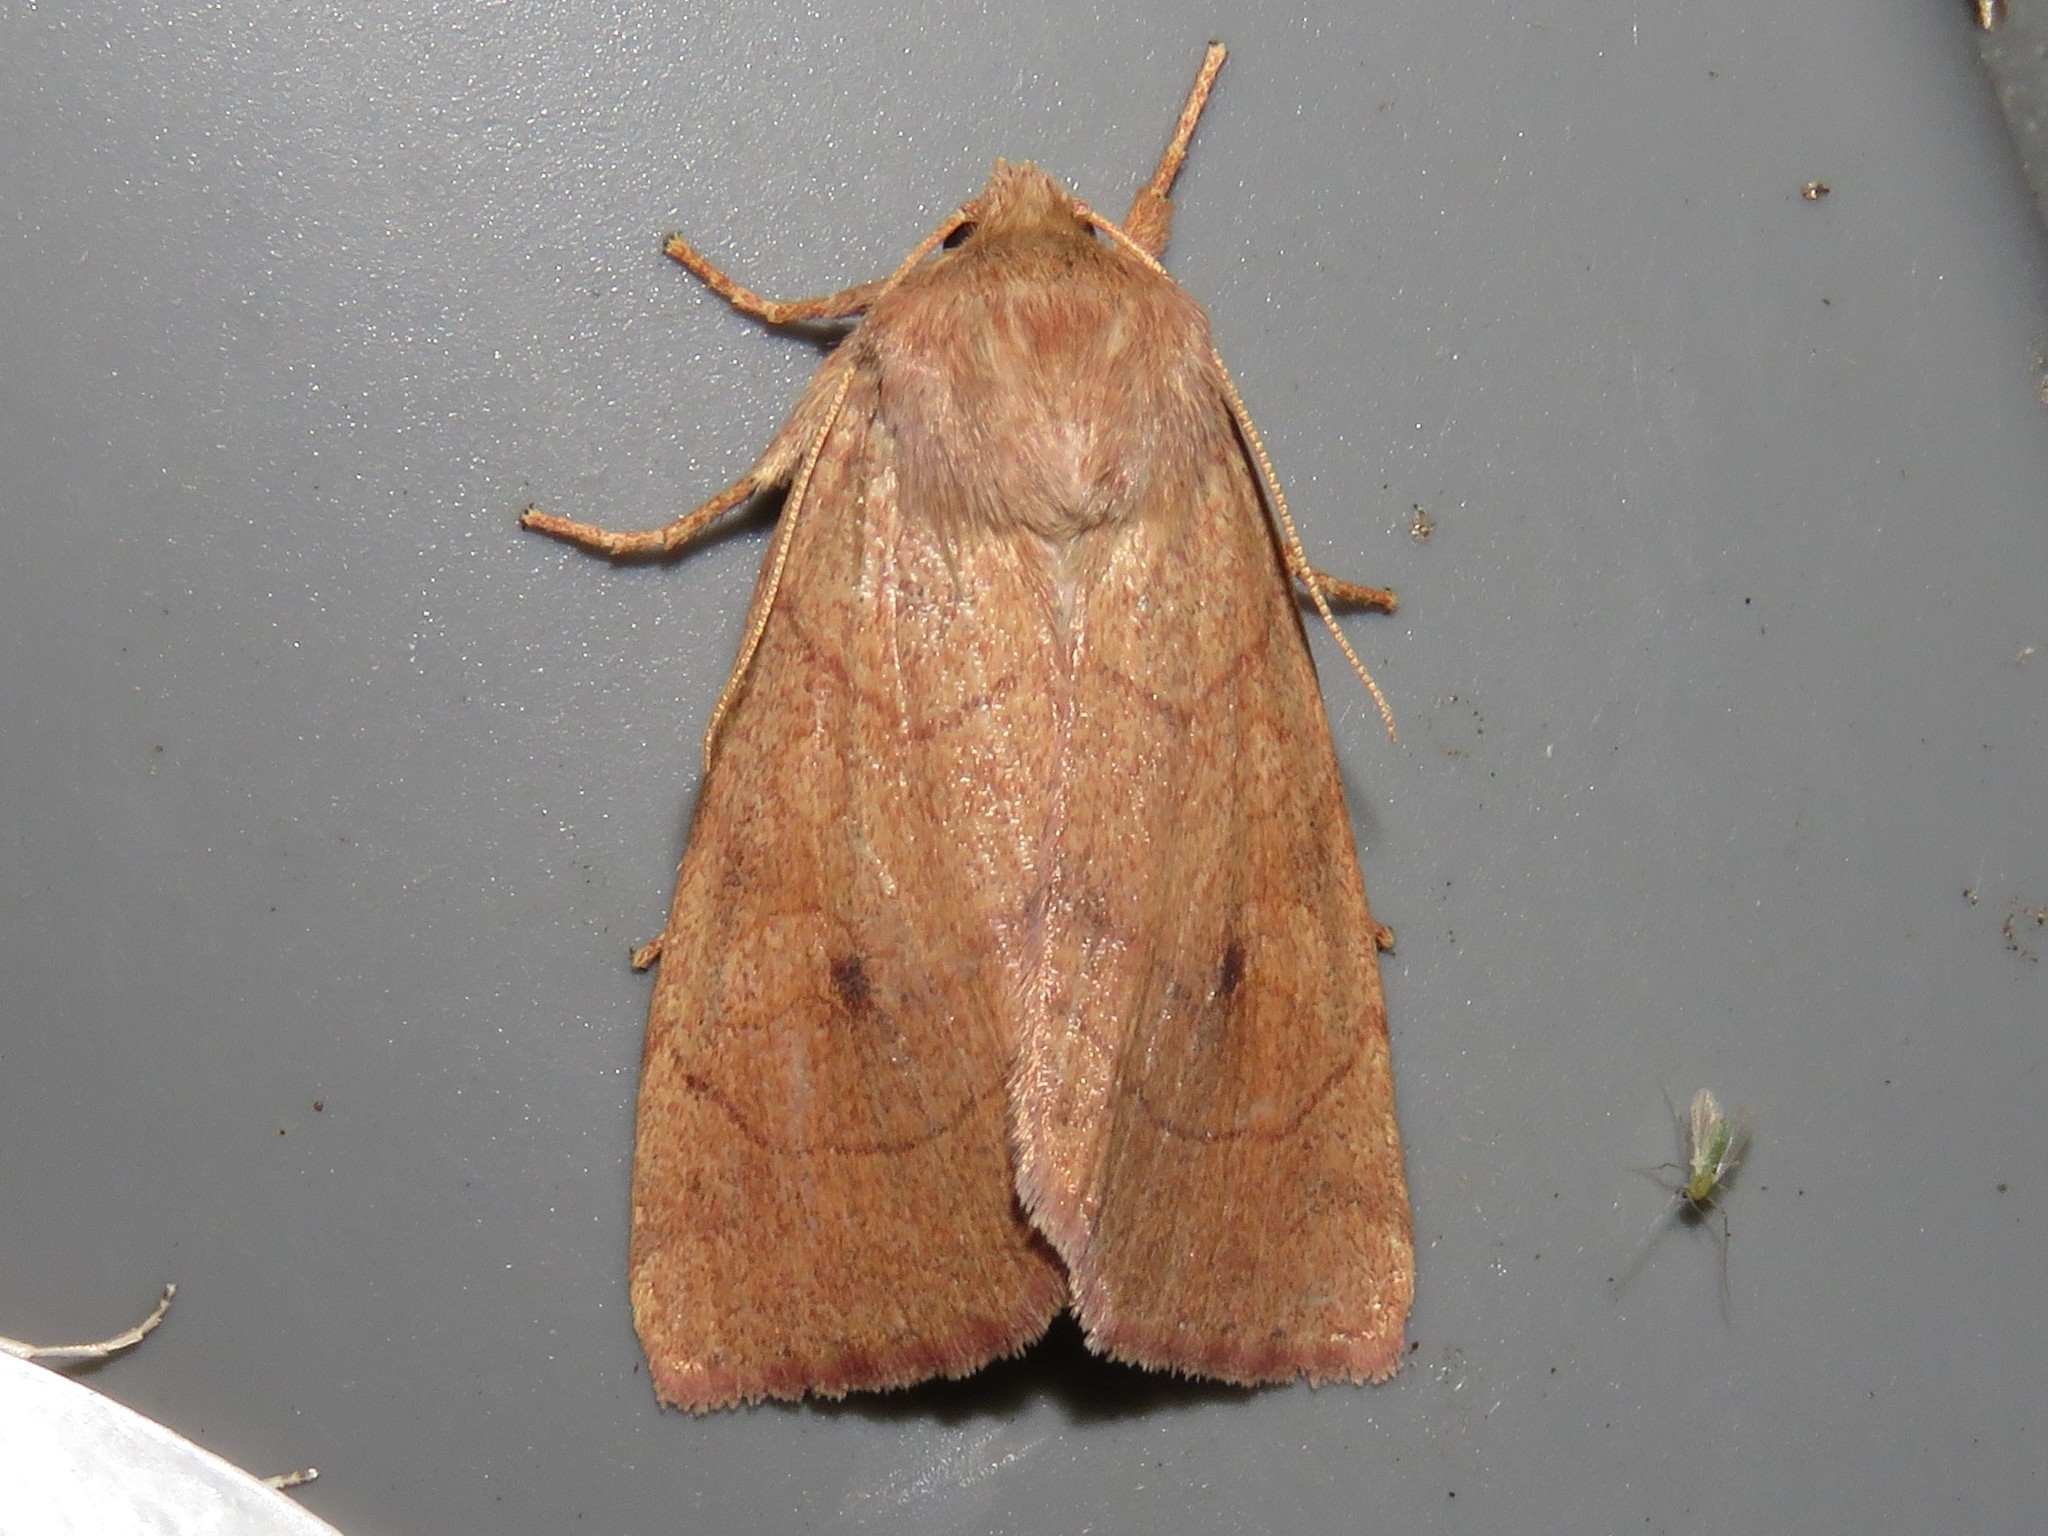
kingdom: Animalia
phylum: Arthropoda
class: Insecta
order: Lepidoptera
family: Noctuidae
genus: Enargia
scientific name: Enargia infumata
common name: Smoked sallow
